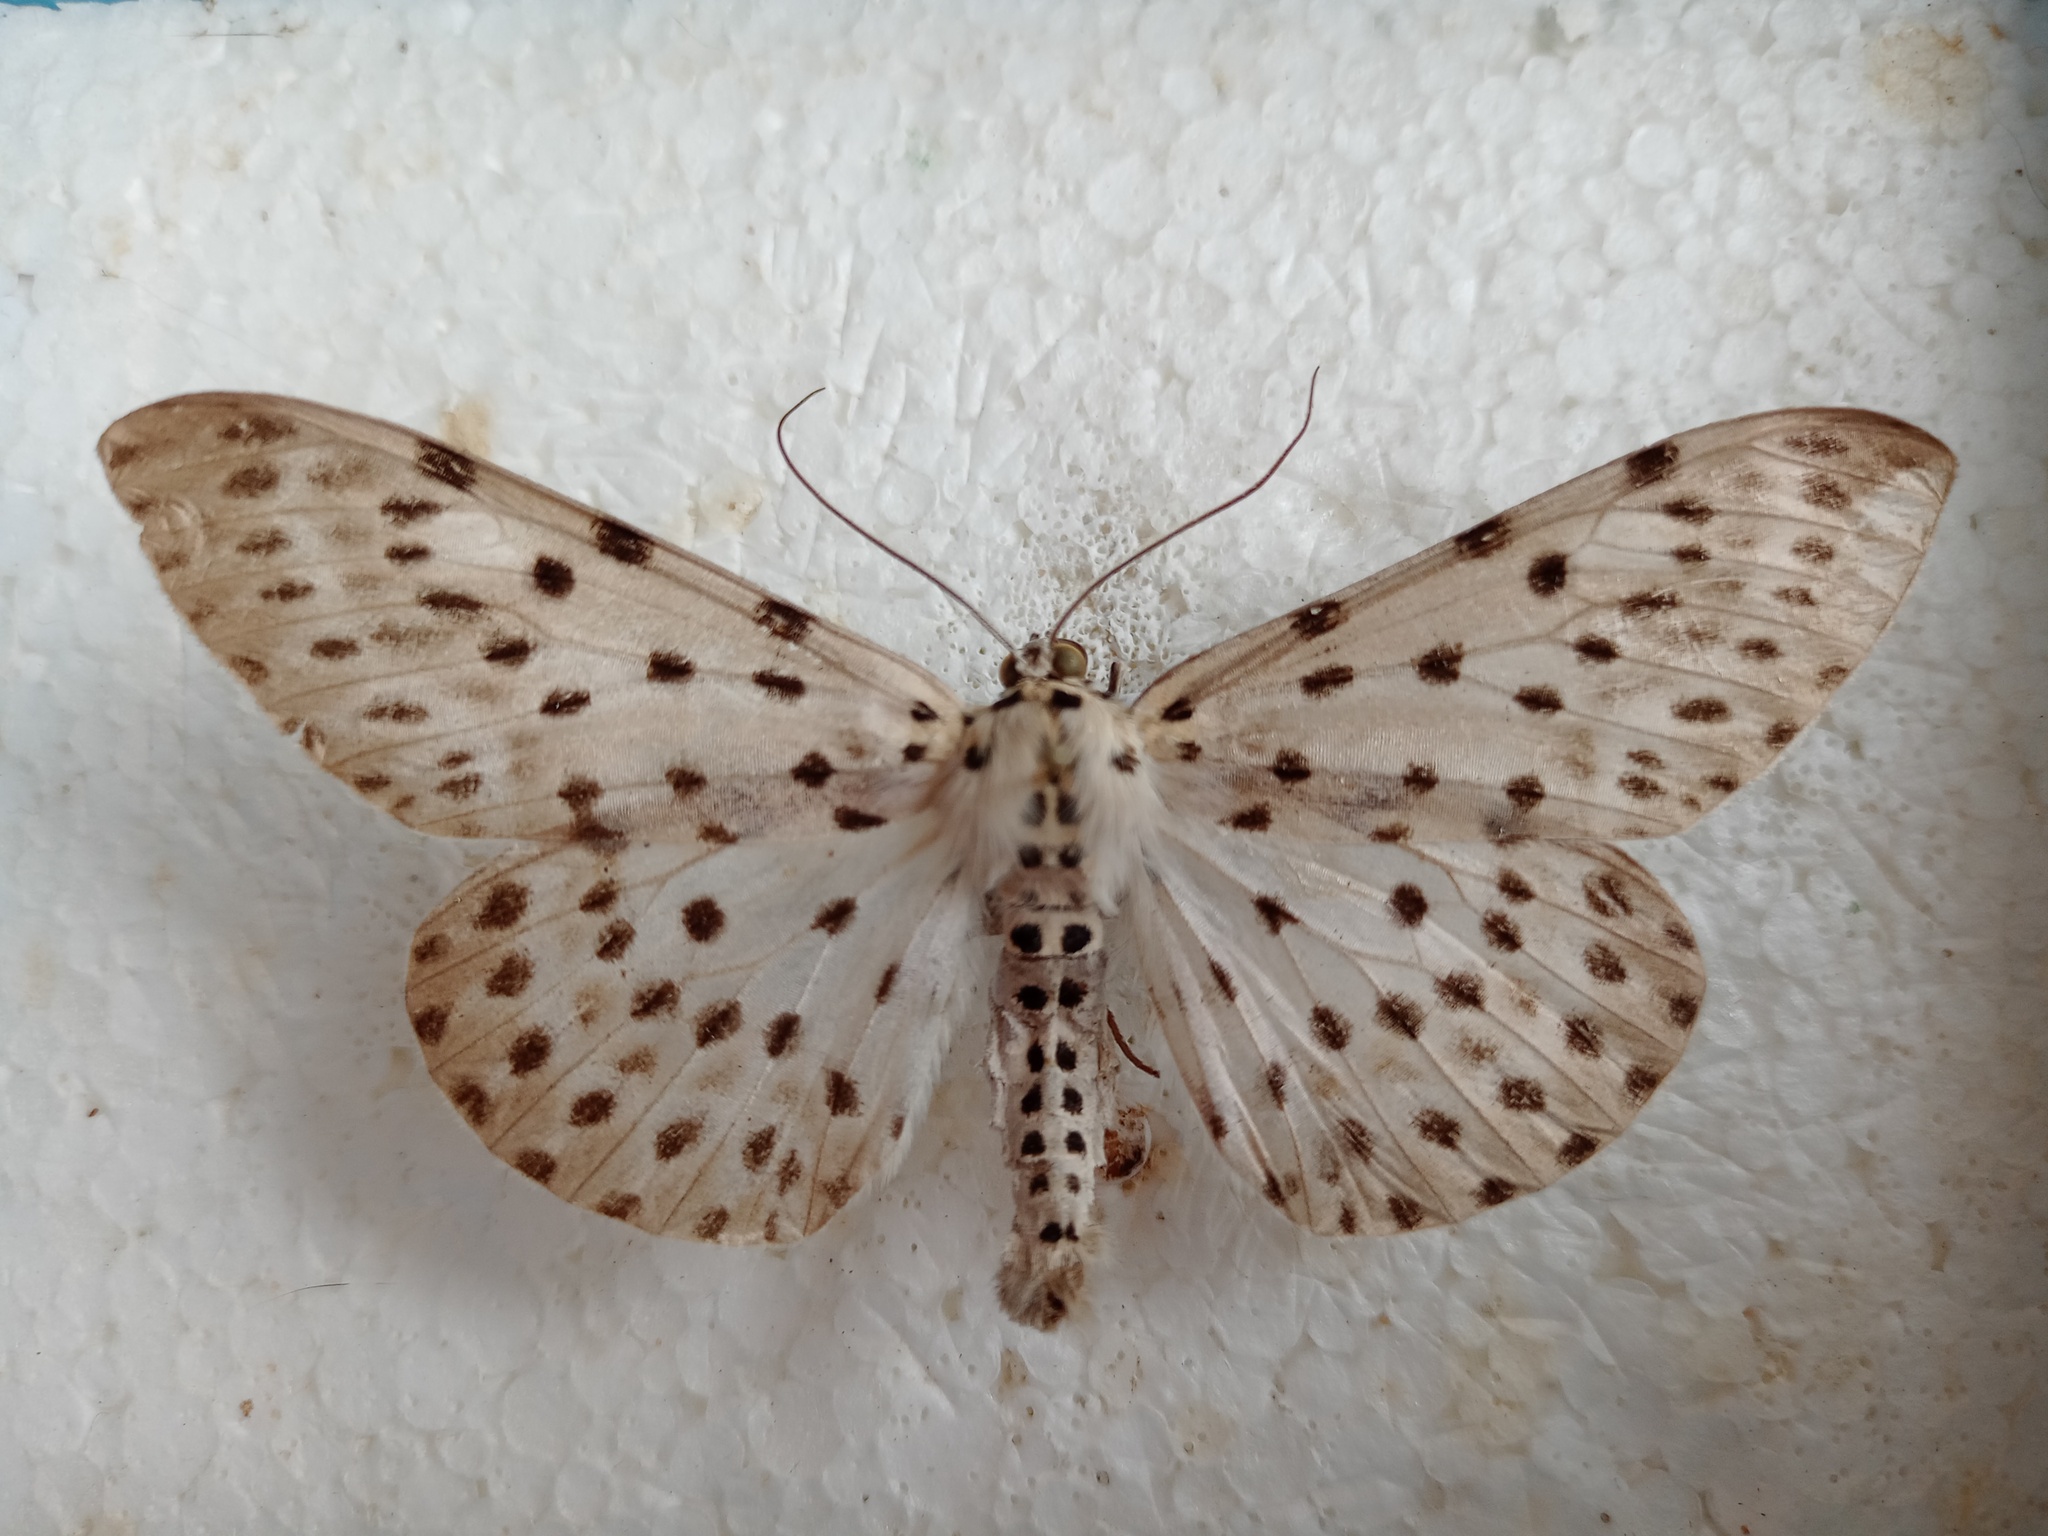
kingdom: Animalia
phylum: Arthropoda
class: Insecta
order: Lepidoptera
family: Geometridae
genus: Percnia
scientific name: Percnia felinaria
